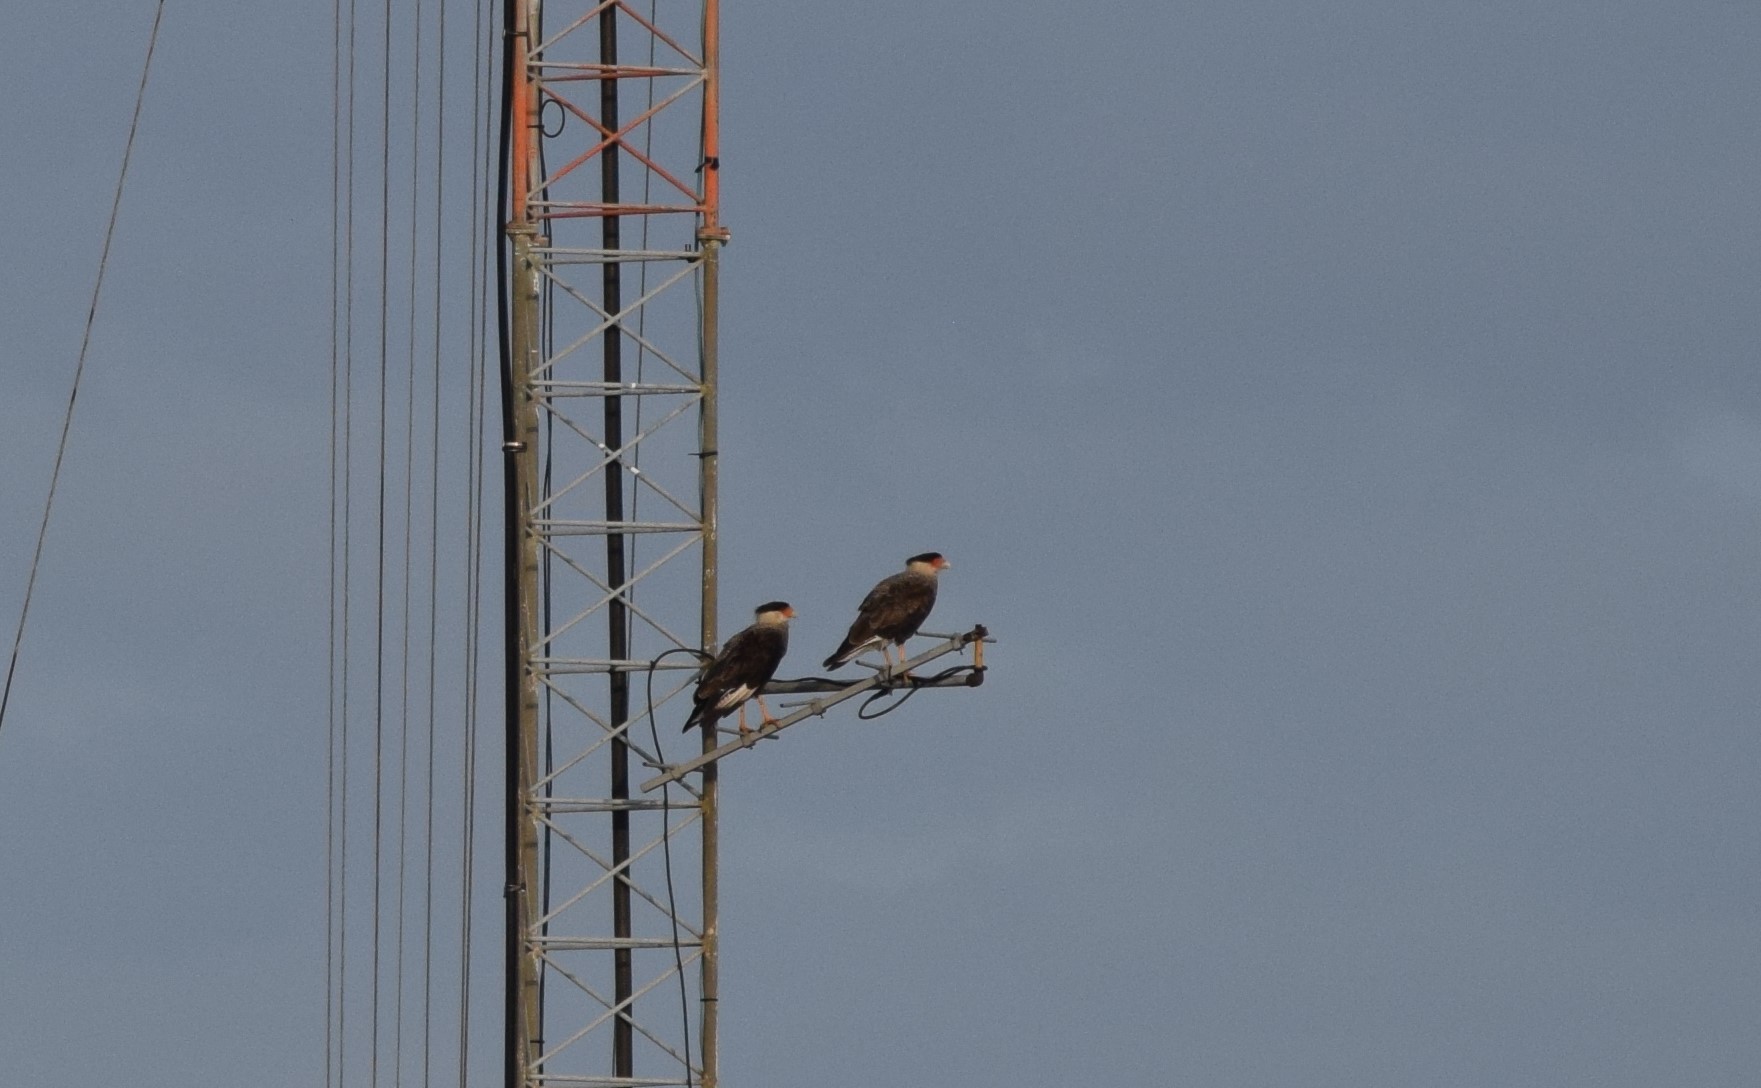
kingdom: Animalia
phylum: Chordata
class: Aves
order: Falconiformes
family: Falconidae
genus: Caracara
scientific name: Caracara plancus
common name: Southern caracara
